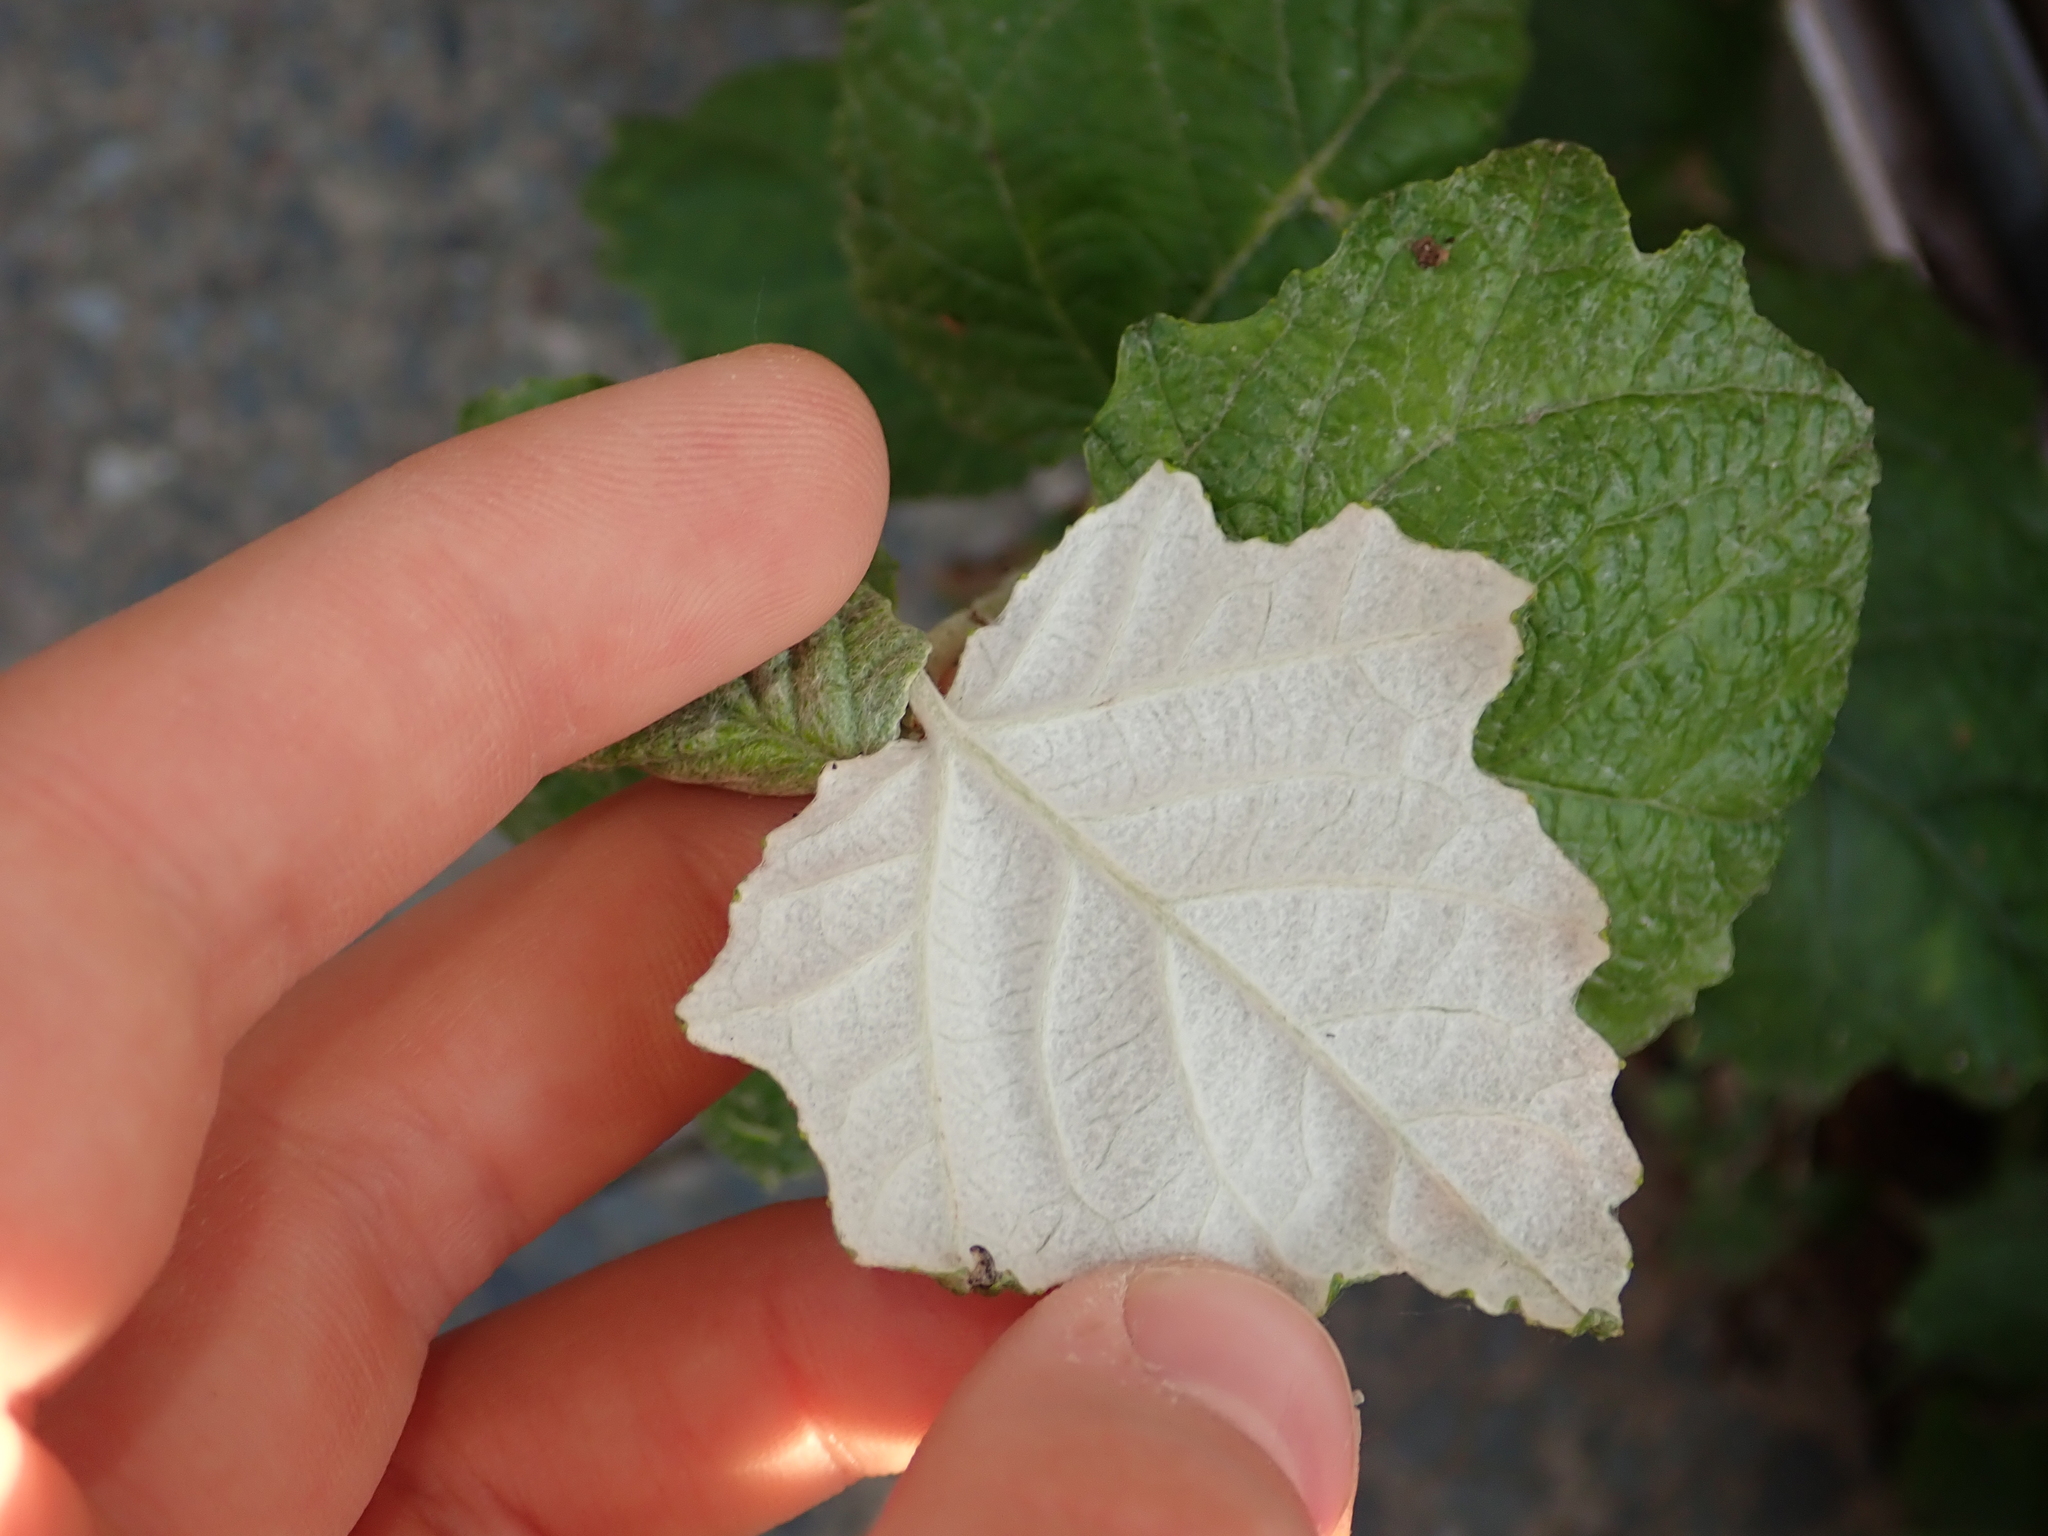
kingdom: Plantae
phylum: Tracheophyta
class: Magnoliopsida
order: Malpighiales
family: Salicaceae
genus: Populus
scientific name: Populus alba
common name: White poplar
